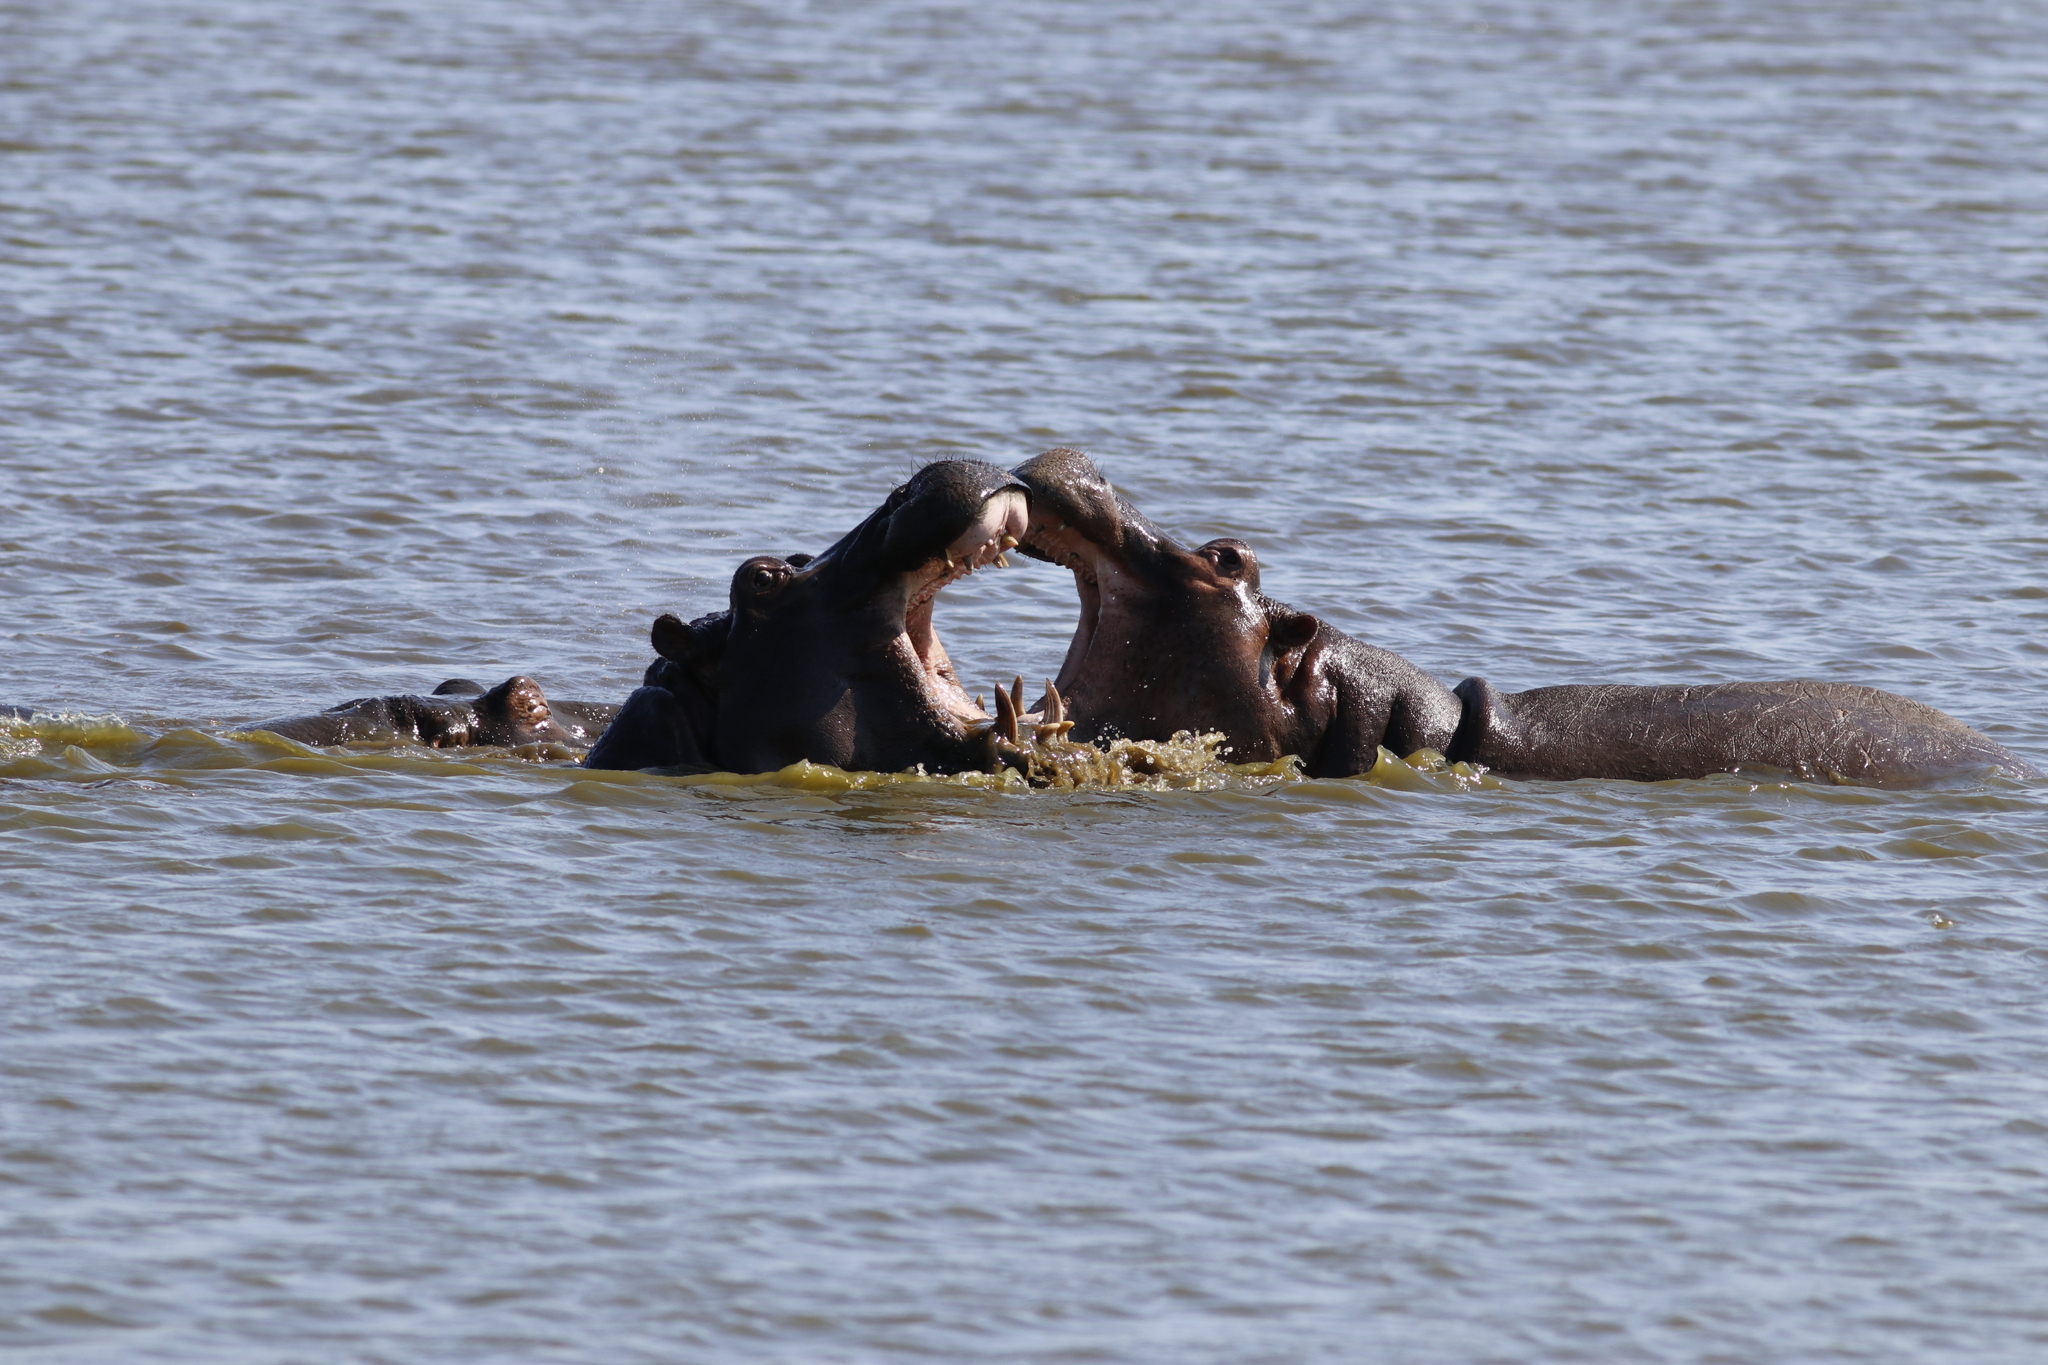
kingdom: Animalia
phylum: Chordata
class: Mammalia
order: Artiodactyla
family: Hippopotamidae
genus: Hippopotamus
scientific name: Hippopotamus amphibius
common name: Common hippopotamus
